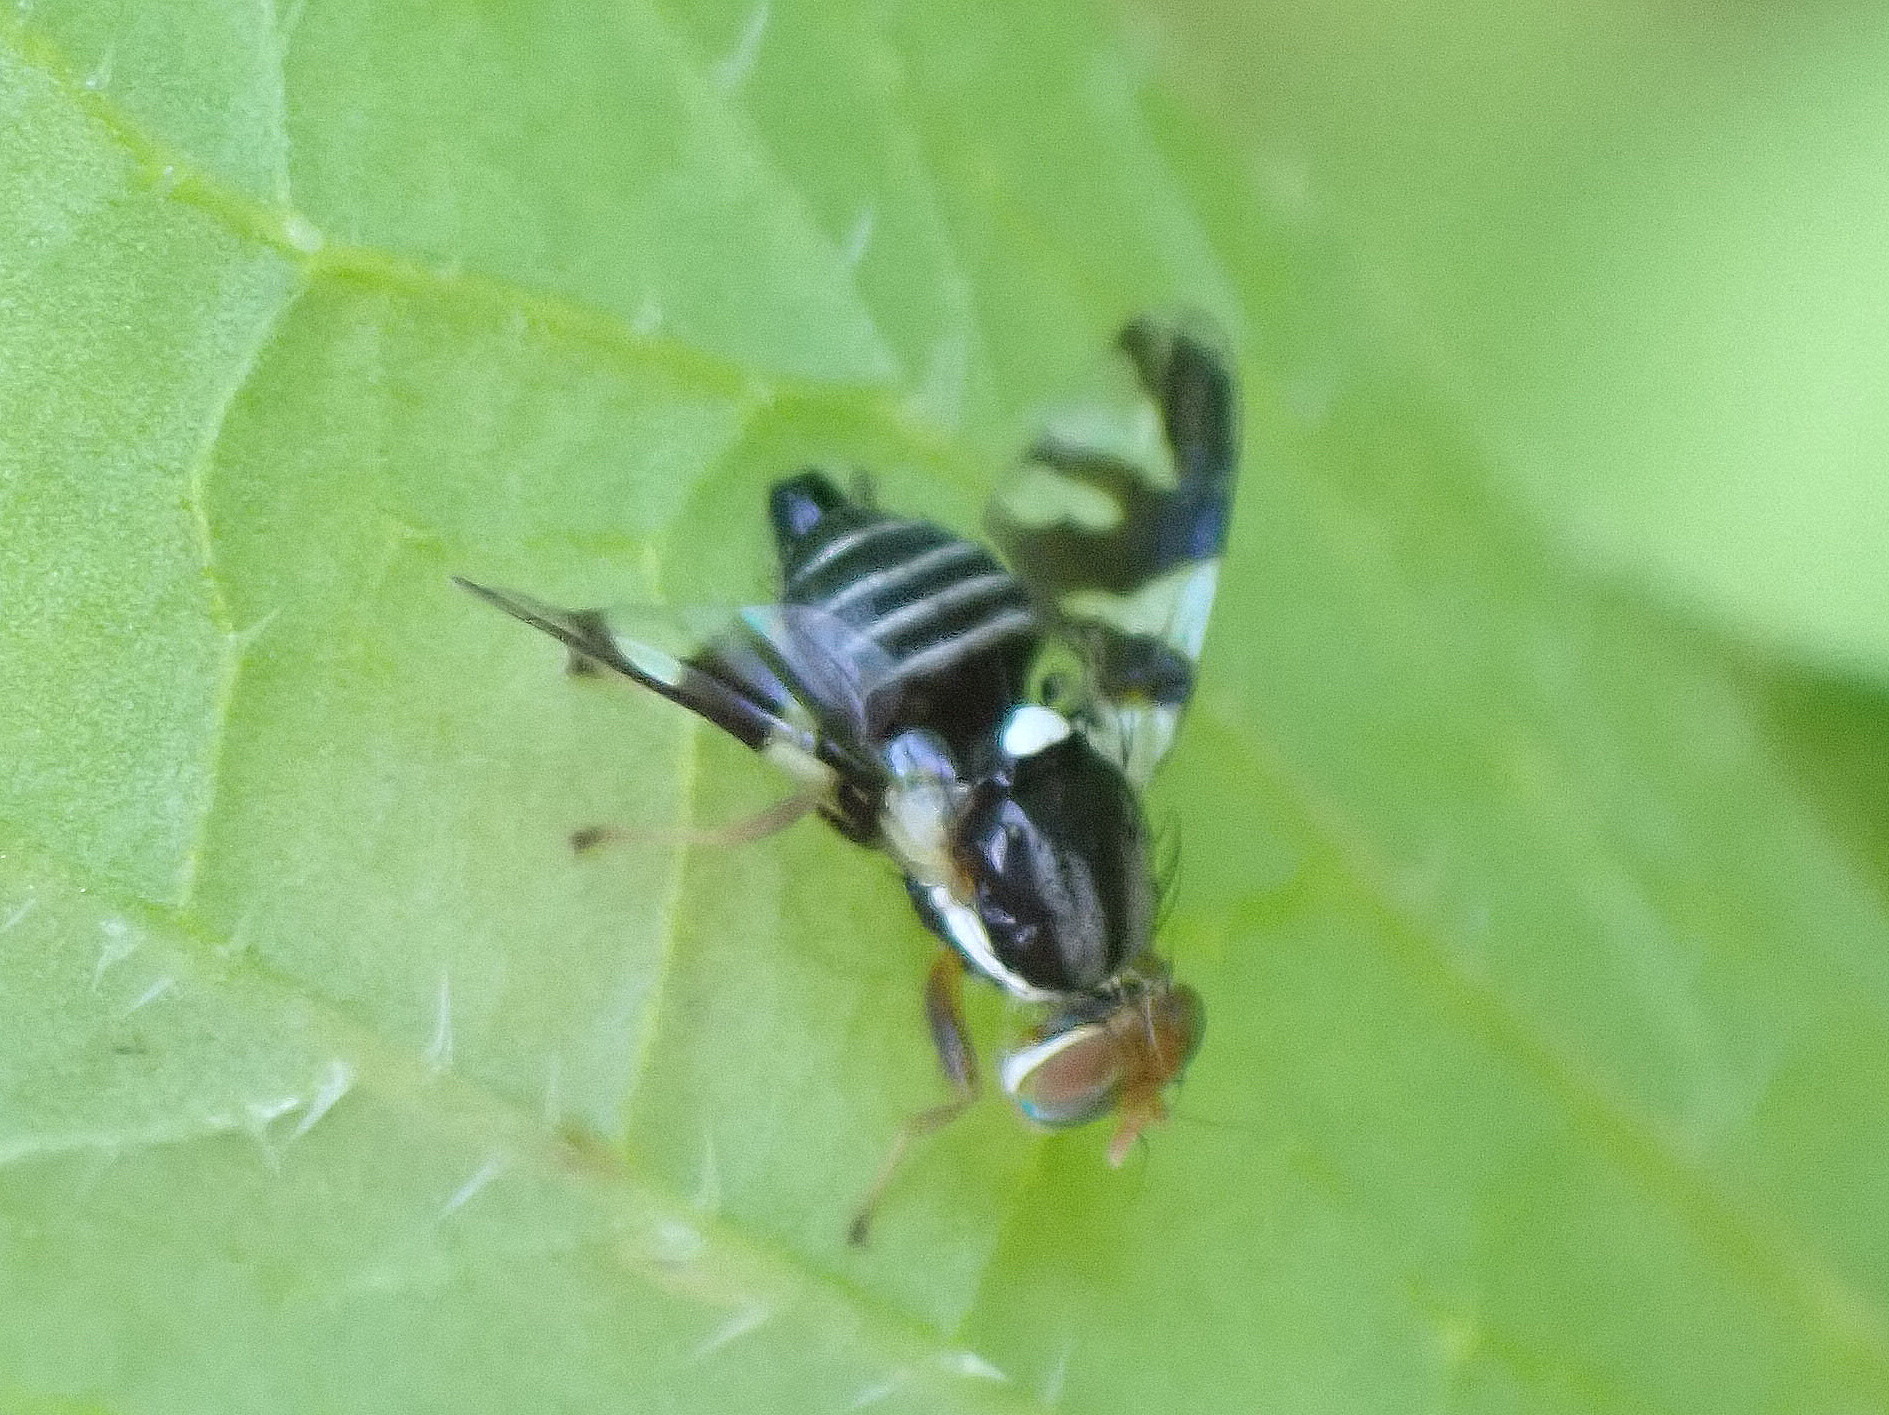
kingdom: Animalia
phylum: Arthropoda
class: Insecta
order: Diptera
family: Tephritidae
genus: Rhagoletis
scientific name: Rhagoletis pomonella
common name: Apple maggot
